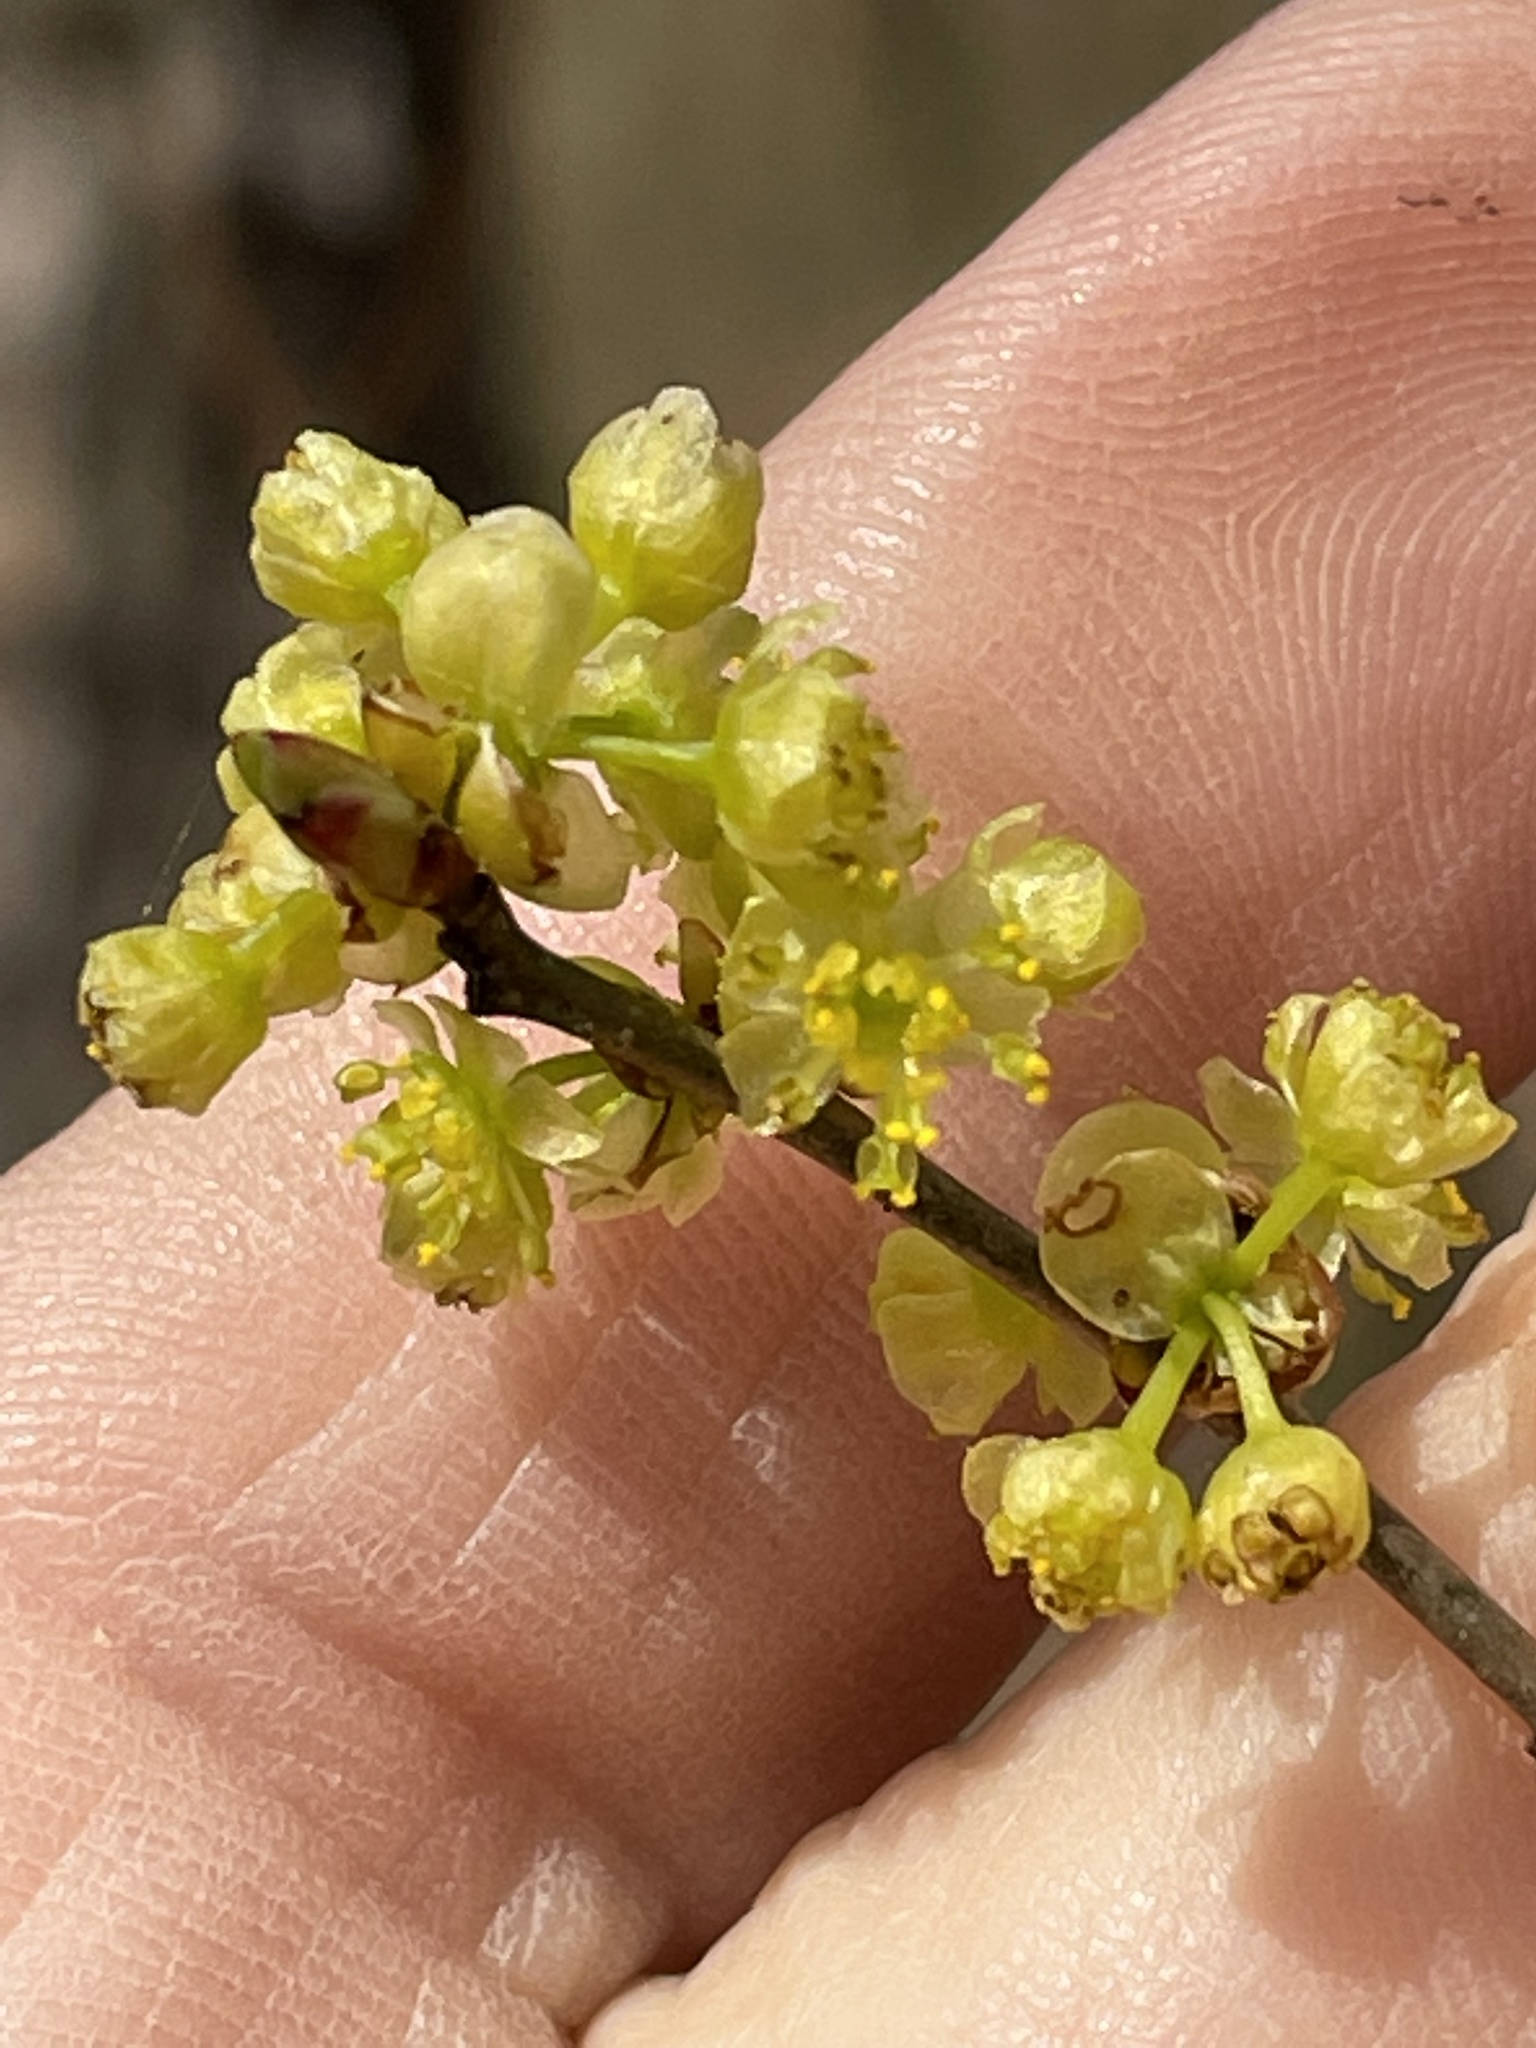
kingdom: Plantae
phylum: Tracheophyta
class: Magnoliopsida
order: Laurales
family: Lauraceae
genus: Lindera
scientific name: Lindera benzoin
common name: Spicebush
